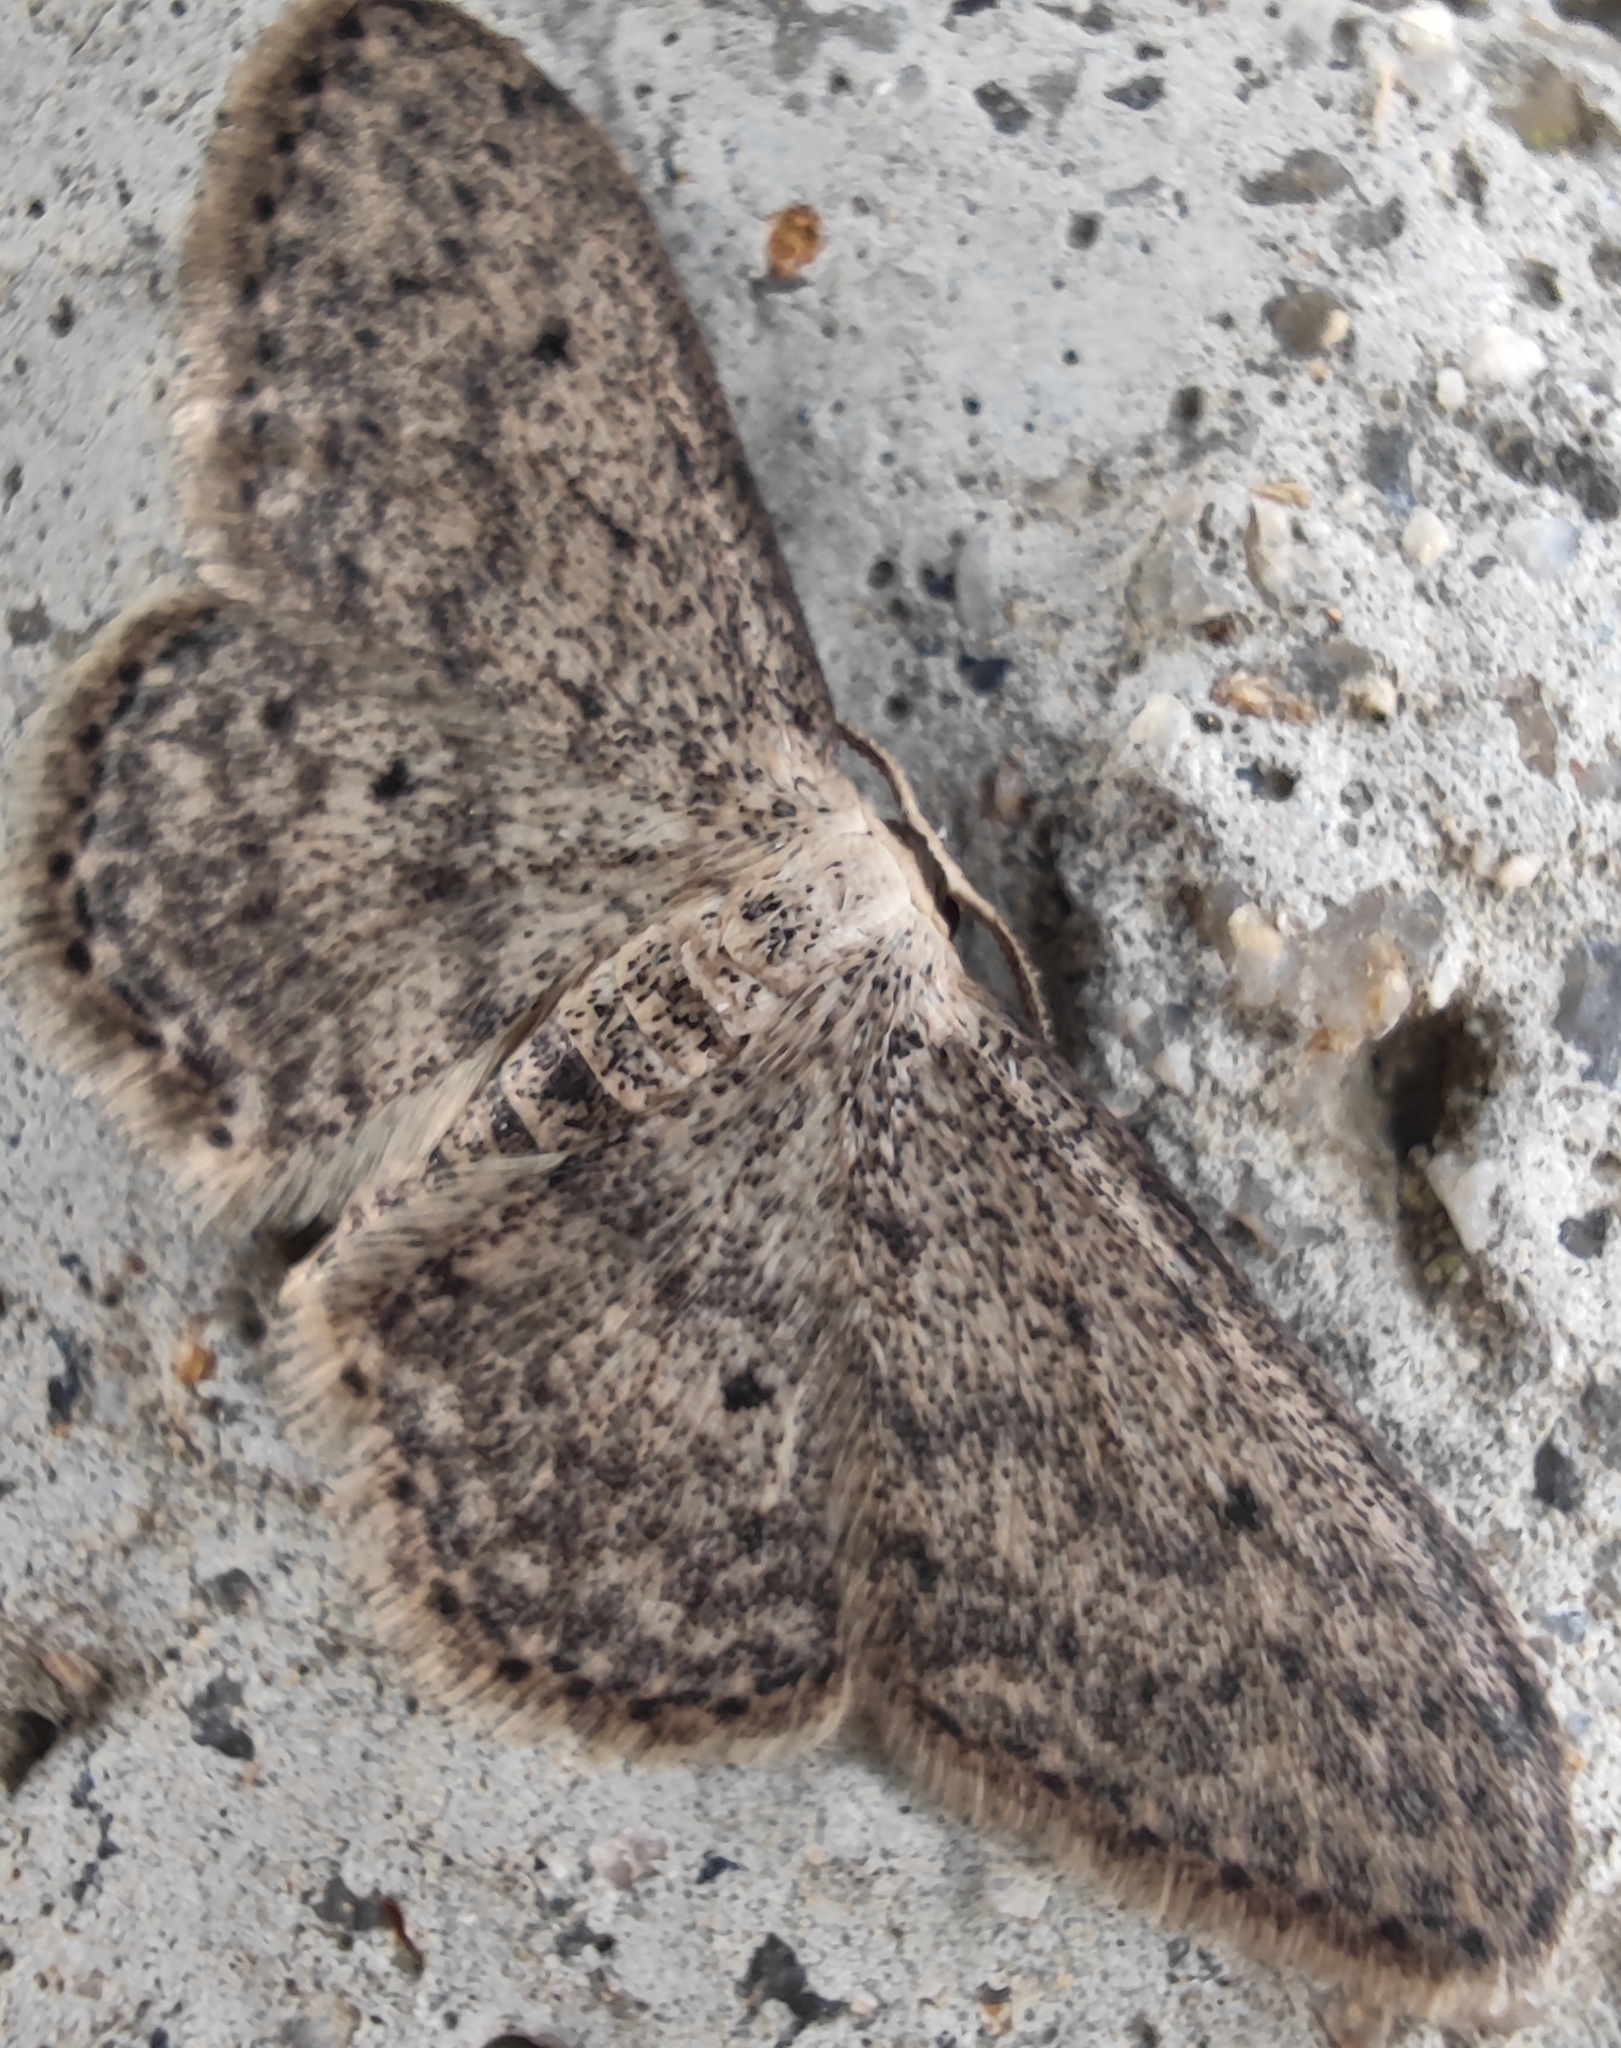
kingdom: Animalia
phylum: Arthropoda
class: Insecta
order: Lepidoptera
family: Geometridae
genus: Idaea
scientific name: Idaea seriata
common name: Small dusty wave
